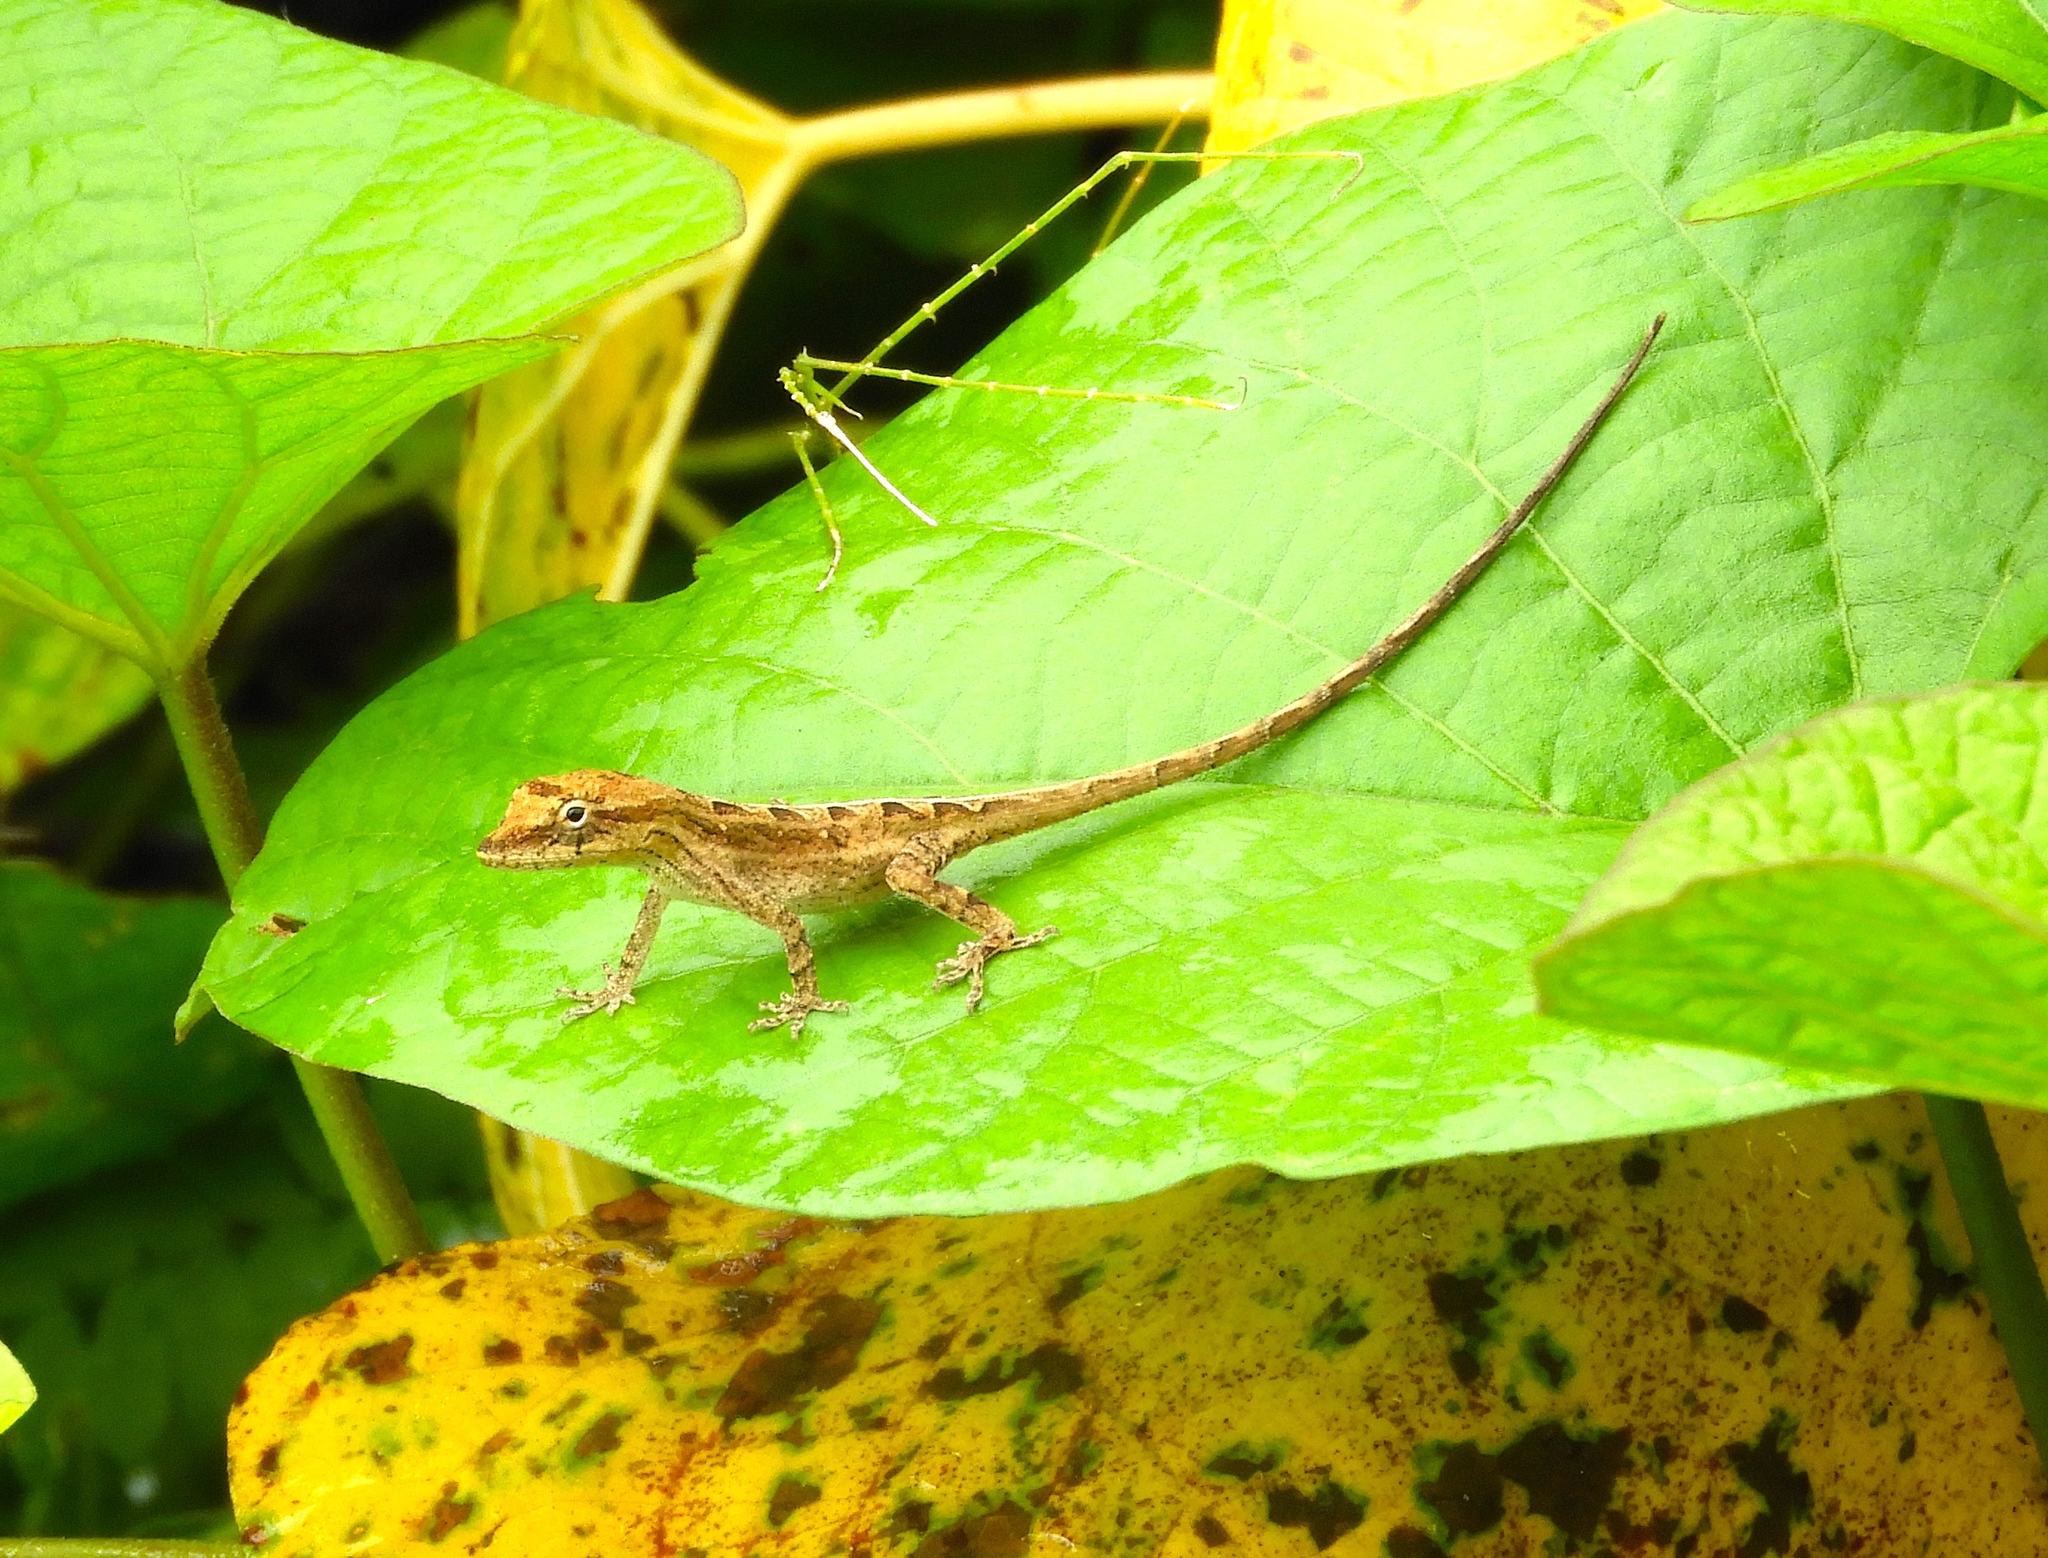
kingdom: Animalia
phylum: Chordata
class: Squamata
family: Dactyloidae
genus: Anolis
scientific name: Anolis nebulosus
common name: Clouded anole
